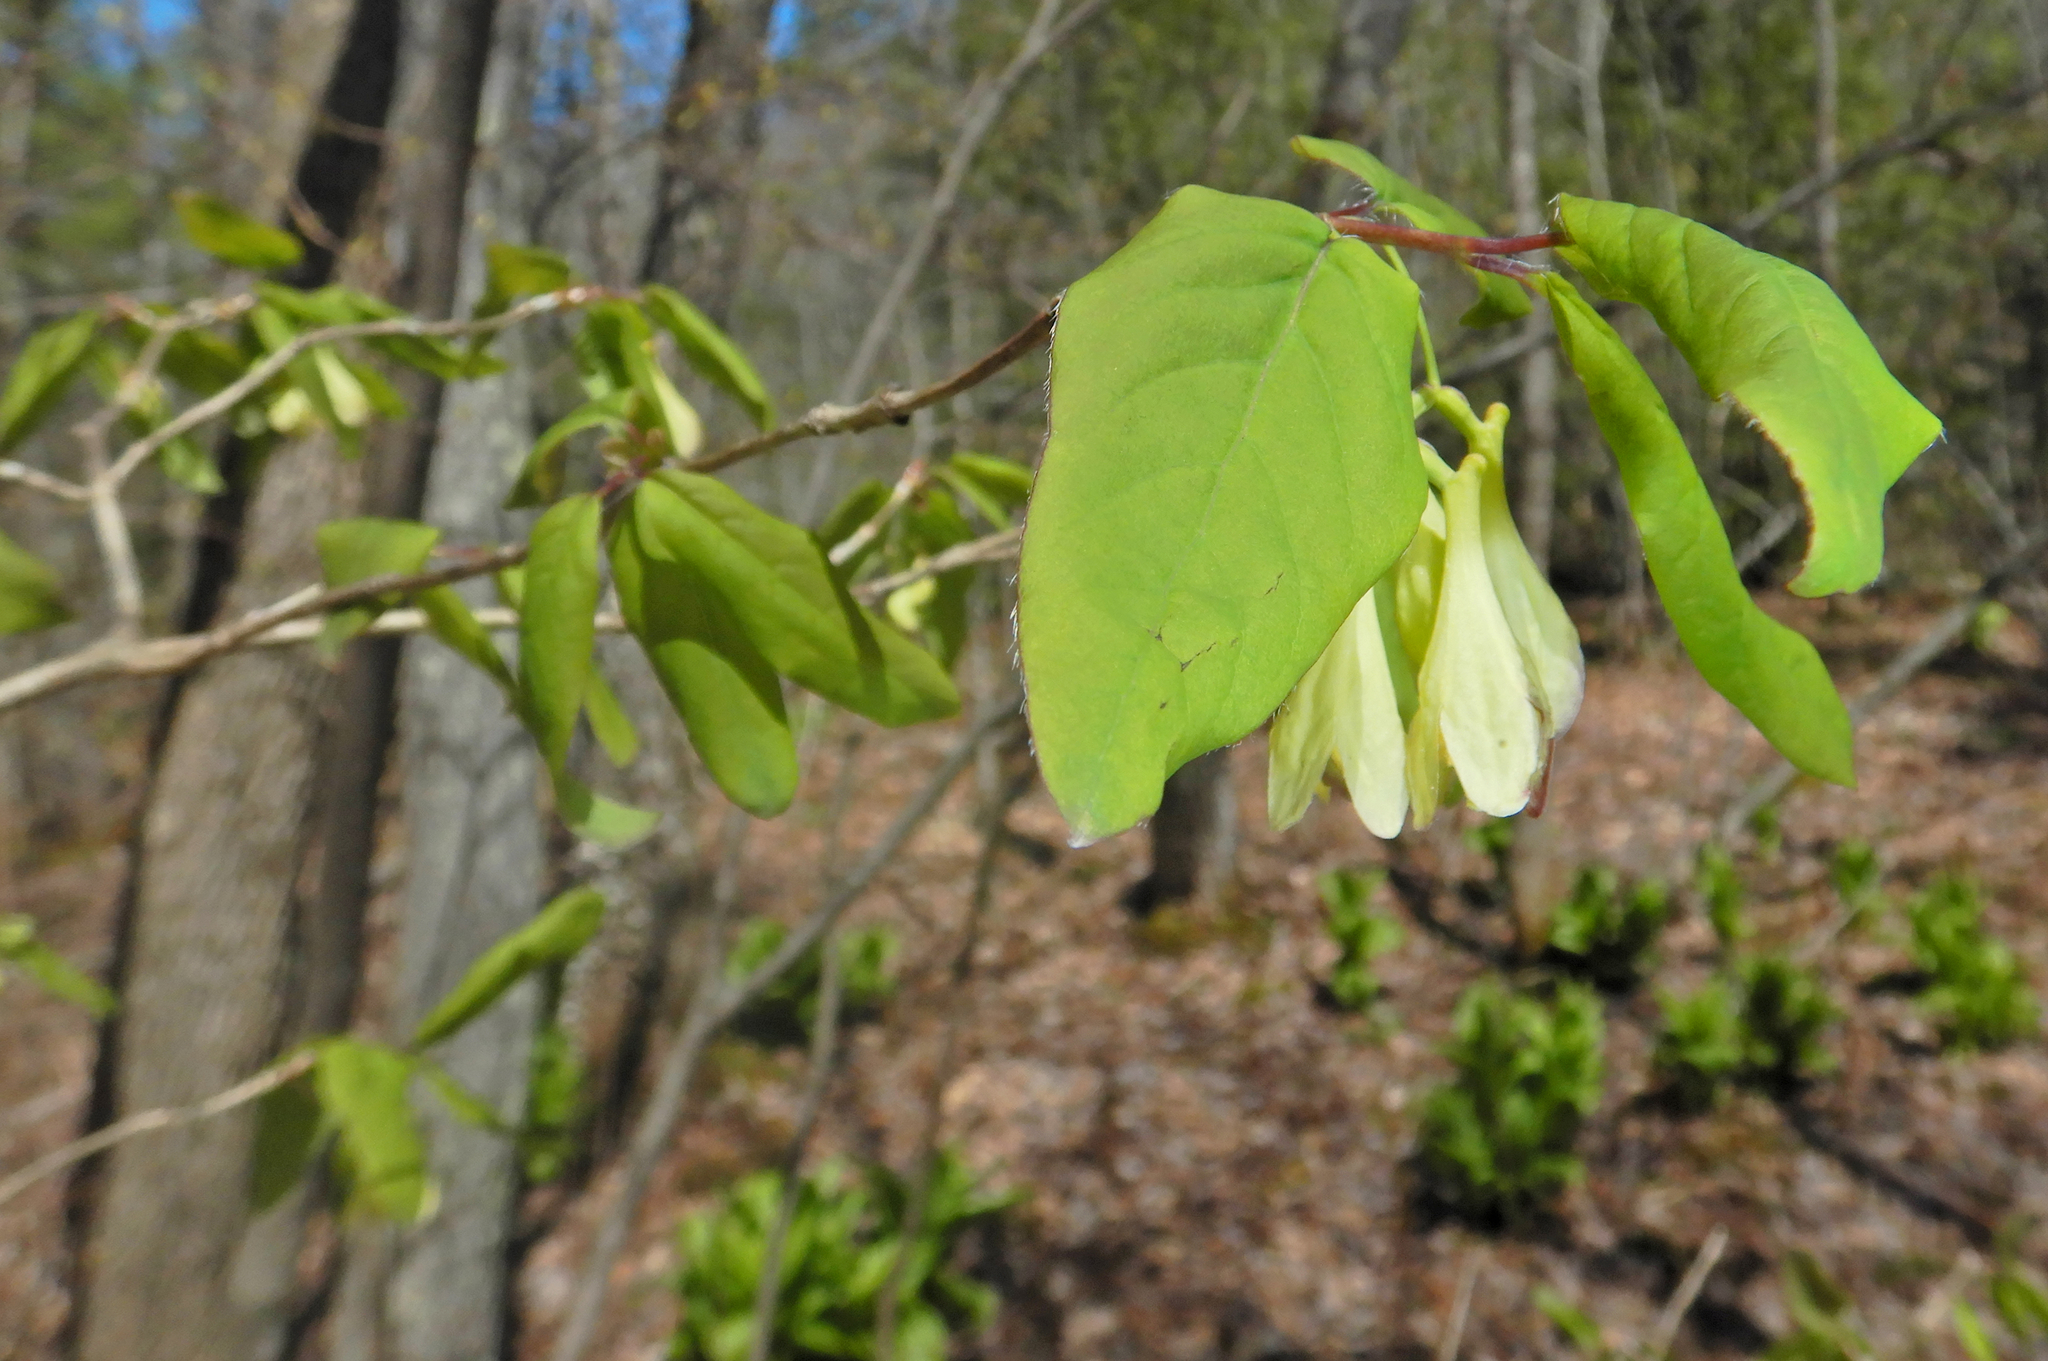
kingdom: Plantae
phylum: Tracheophyta
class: Magnoliopsida
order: Dipsacales
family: Caprifoliaceae
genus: Lonicera
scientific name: Lonicera canadensis
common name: American fly-honeysuckle
